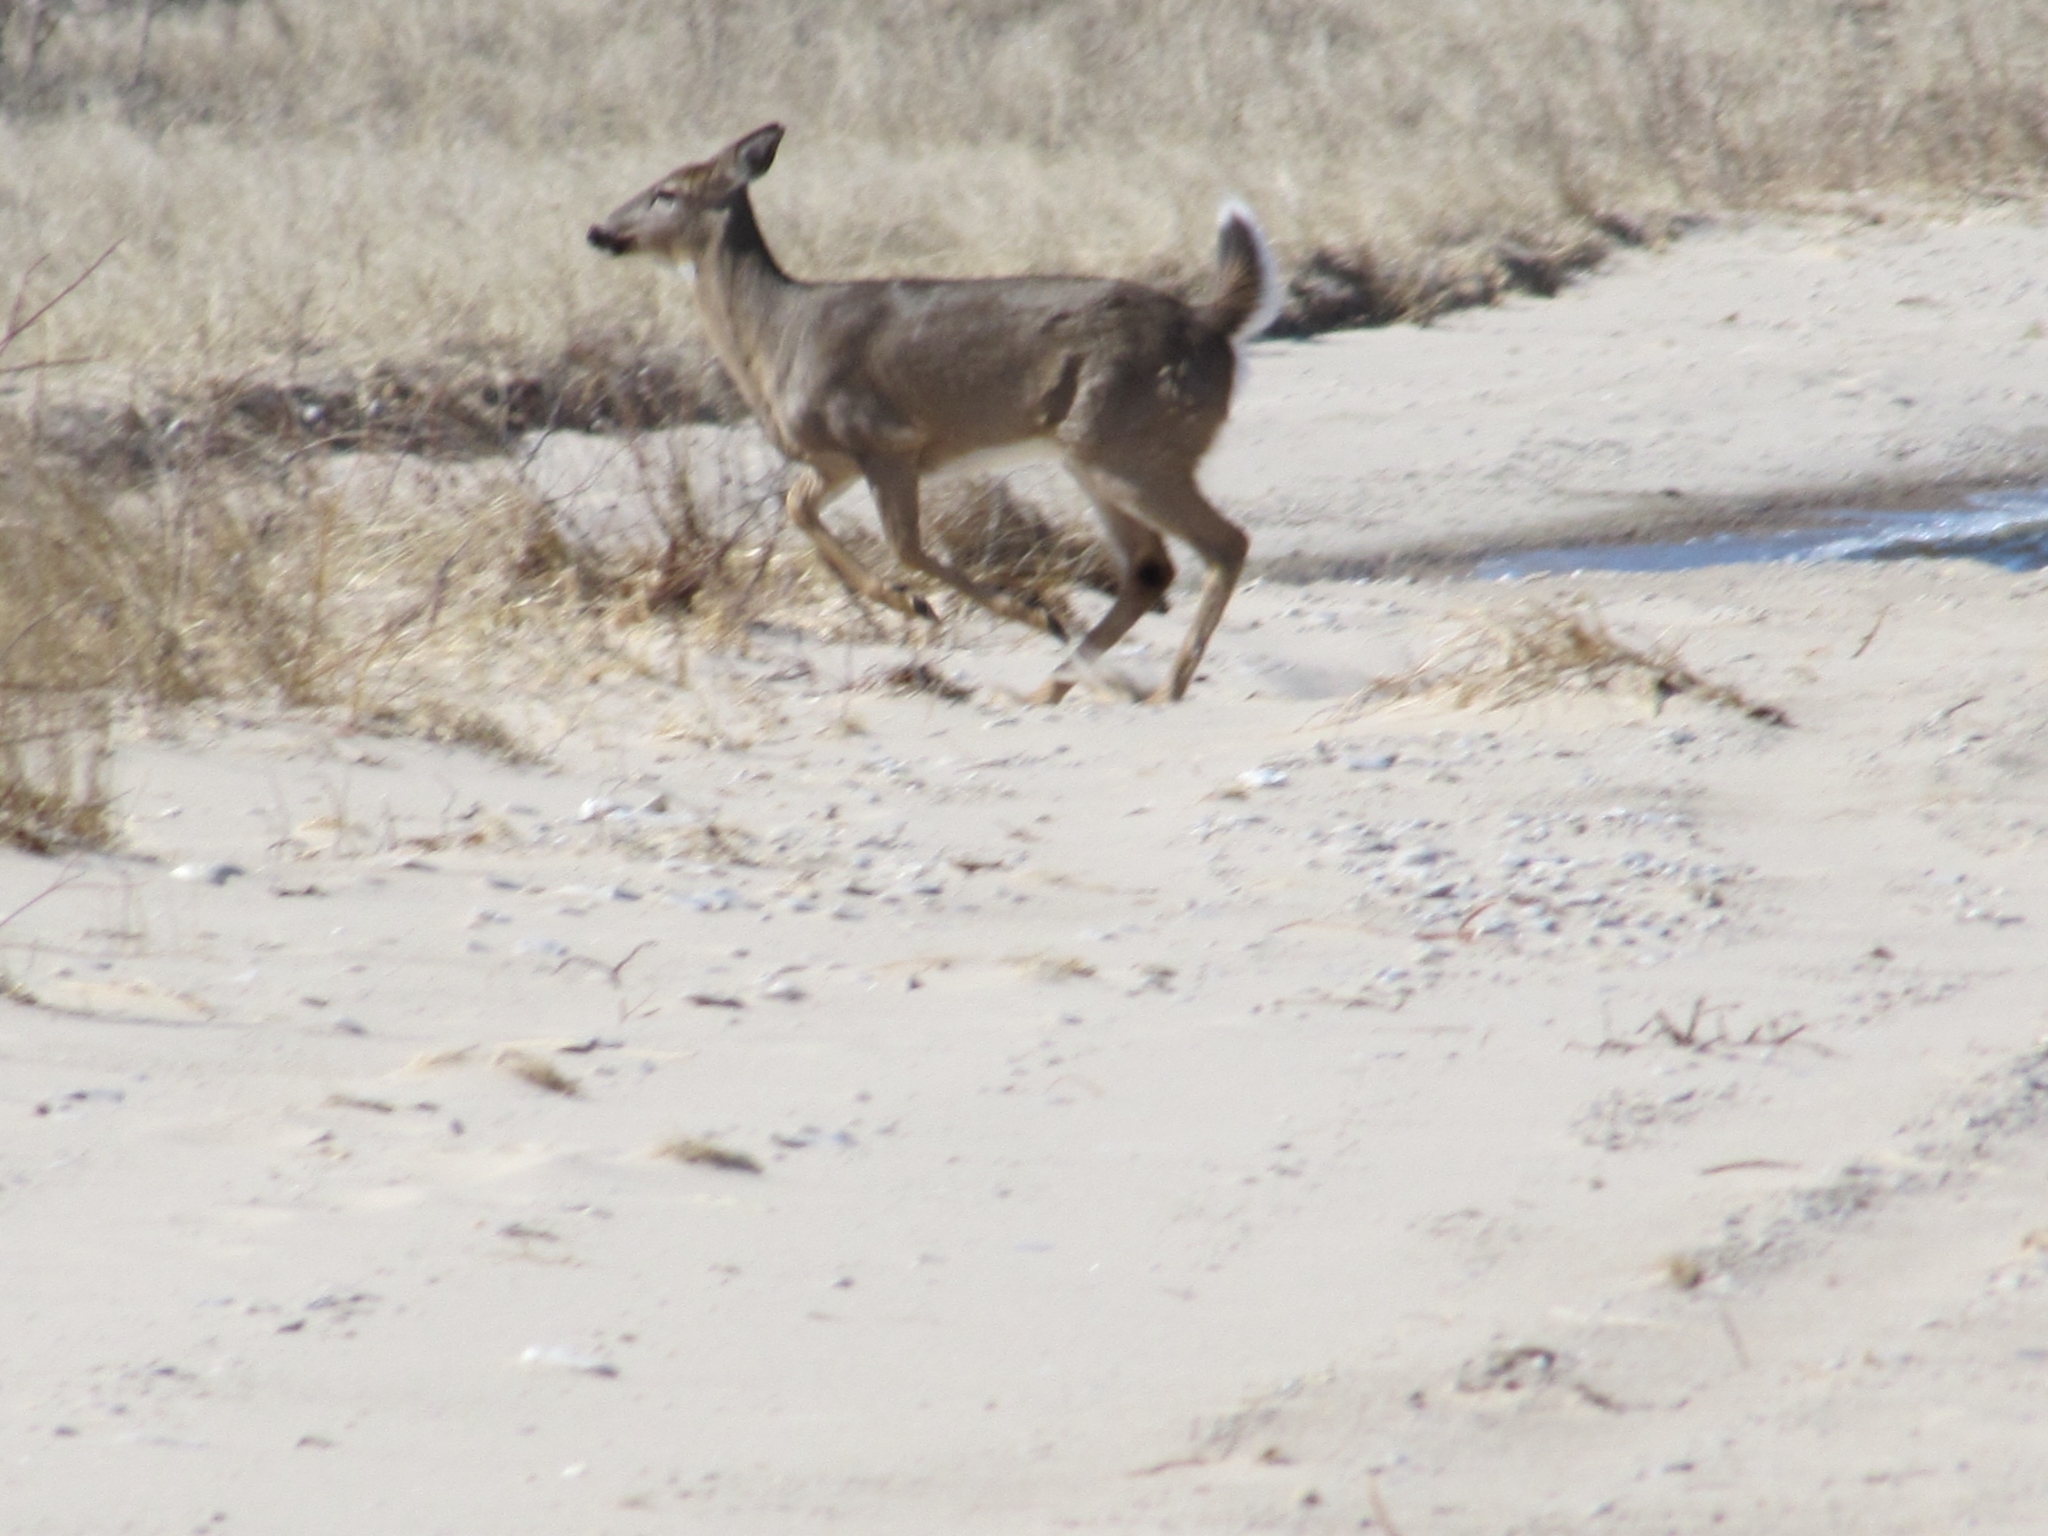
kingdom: Animalia
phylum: Chordata
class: Mammalia
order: Artiodactyla
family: Cervidae
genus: Odocoileus
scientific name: Odocoileus virginianus
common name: White-tailed deer
